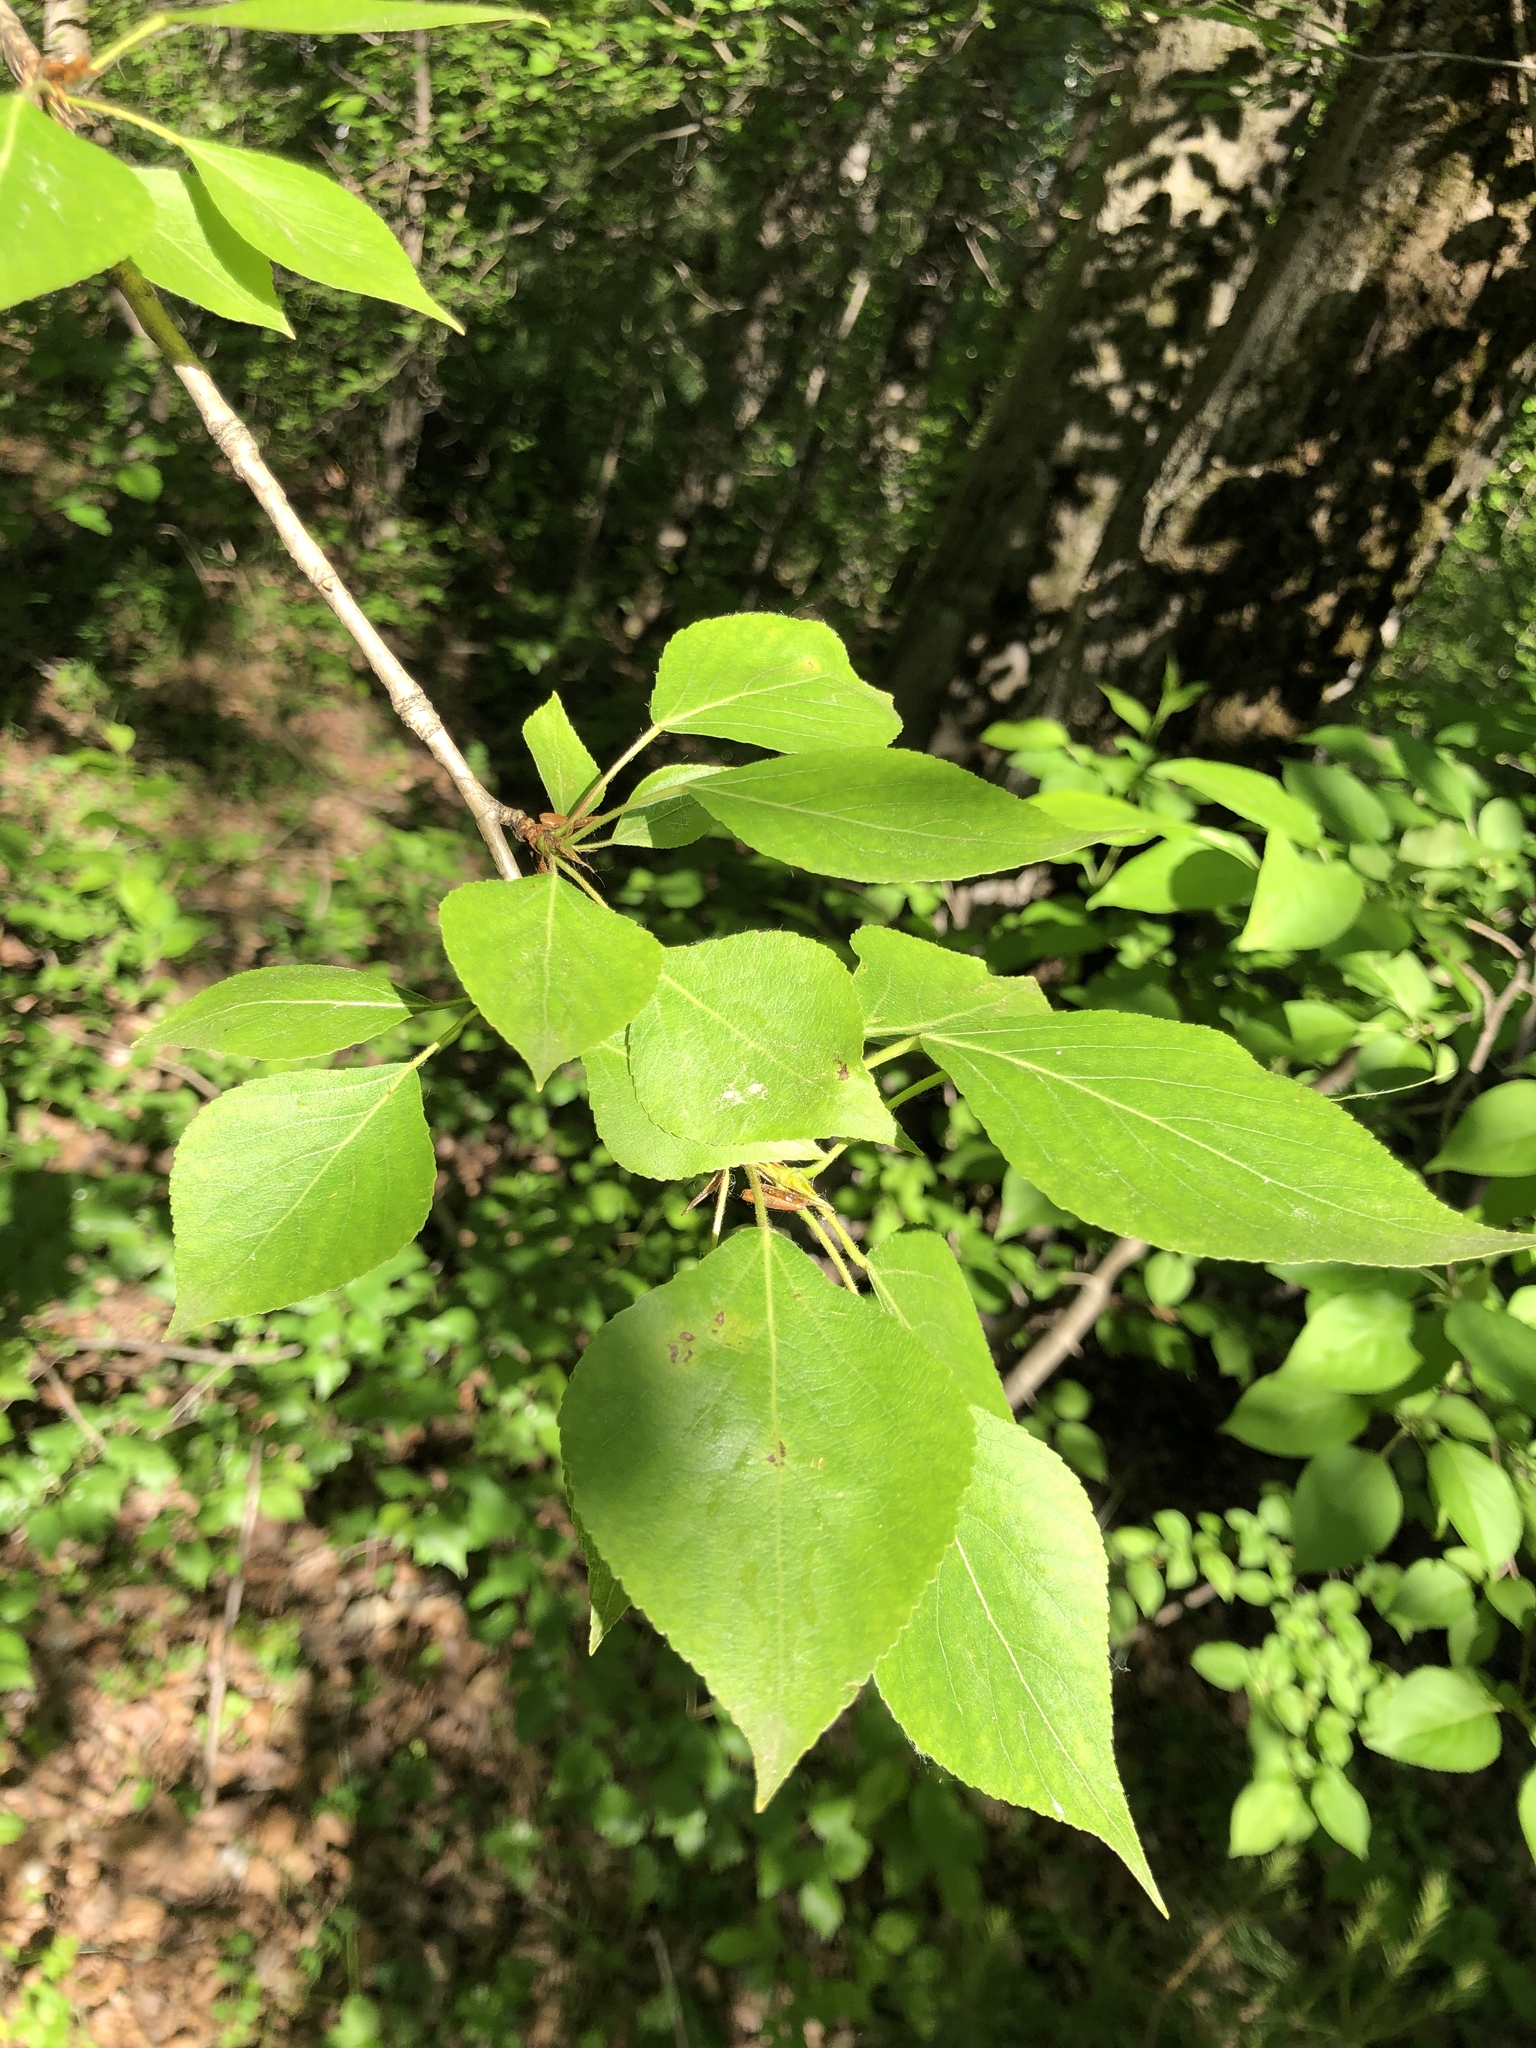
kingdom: Plantae
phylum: Tracheophyta
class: Magnoliopsida
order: Malpighiales
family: Salicaceae
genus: Populus
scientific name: Populus sibirica
